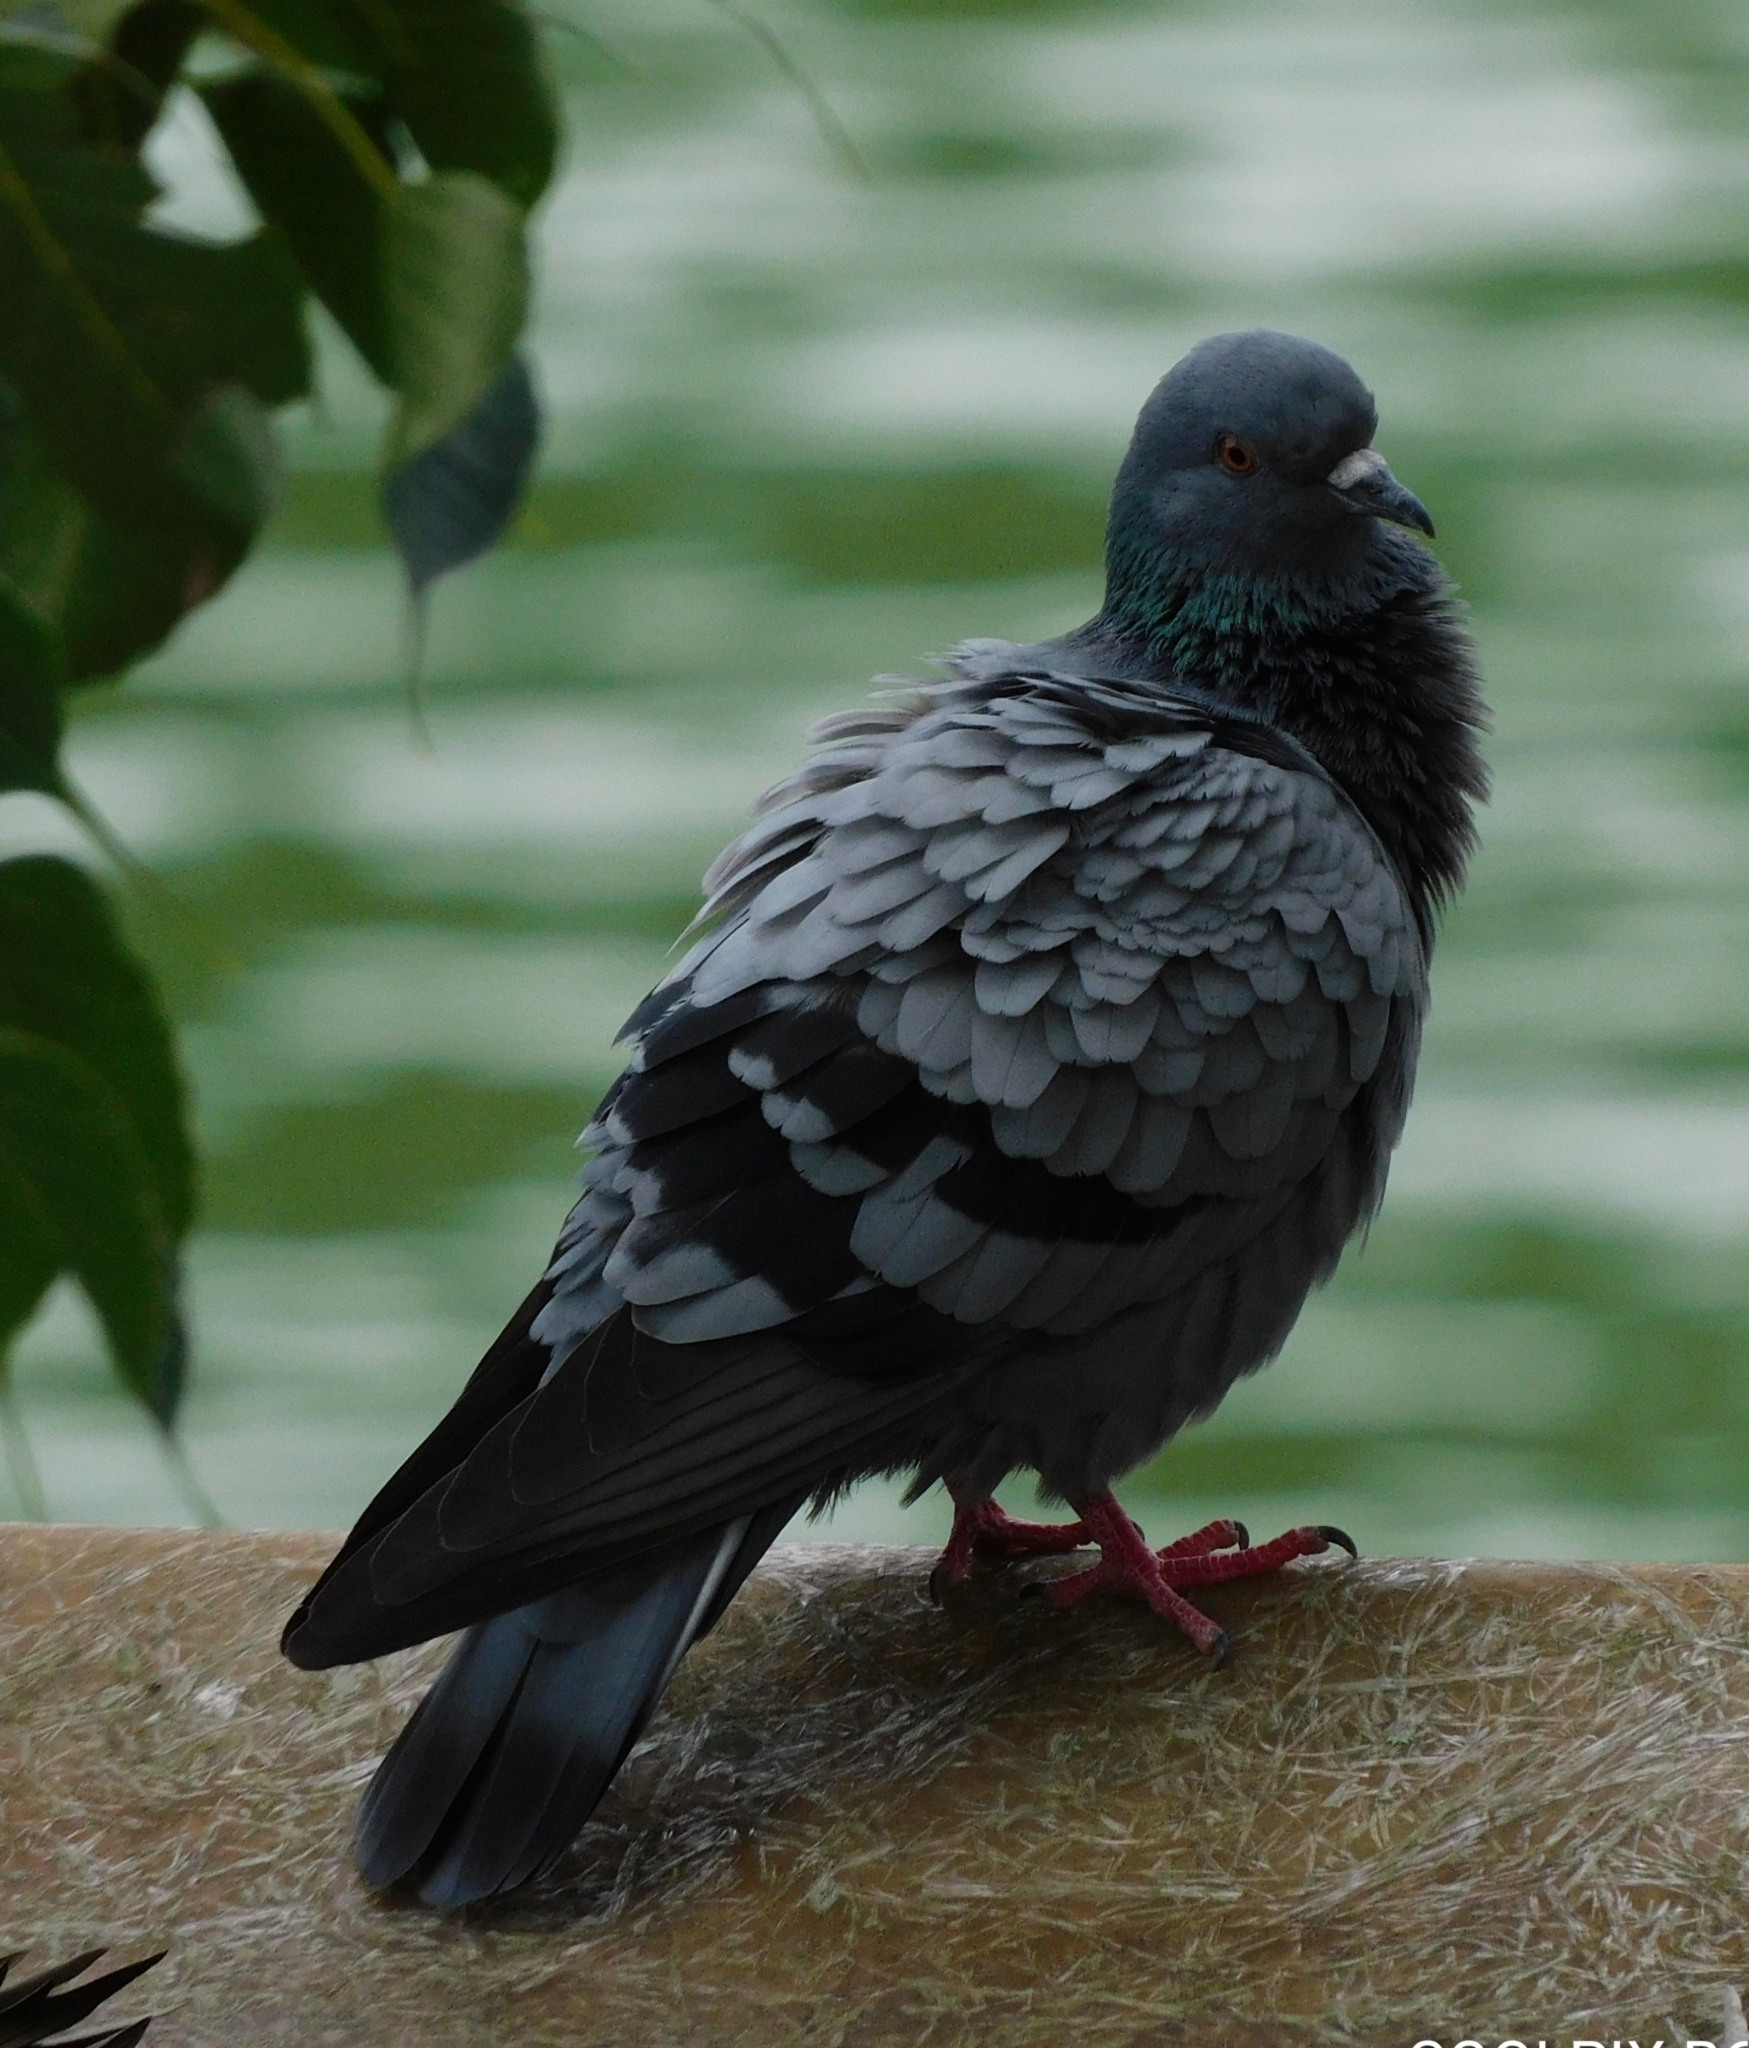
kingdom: Animalia
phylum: Chordata
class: Aves
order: Columbiformes
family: Columbidae
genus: Columba
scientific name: Columba livia
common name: Rock pigeon
